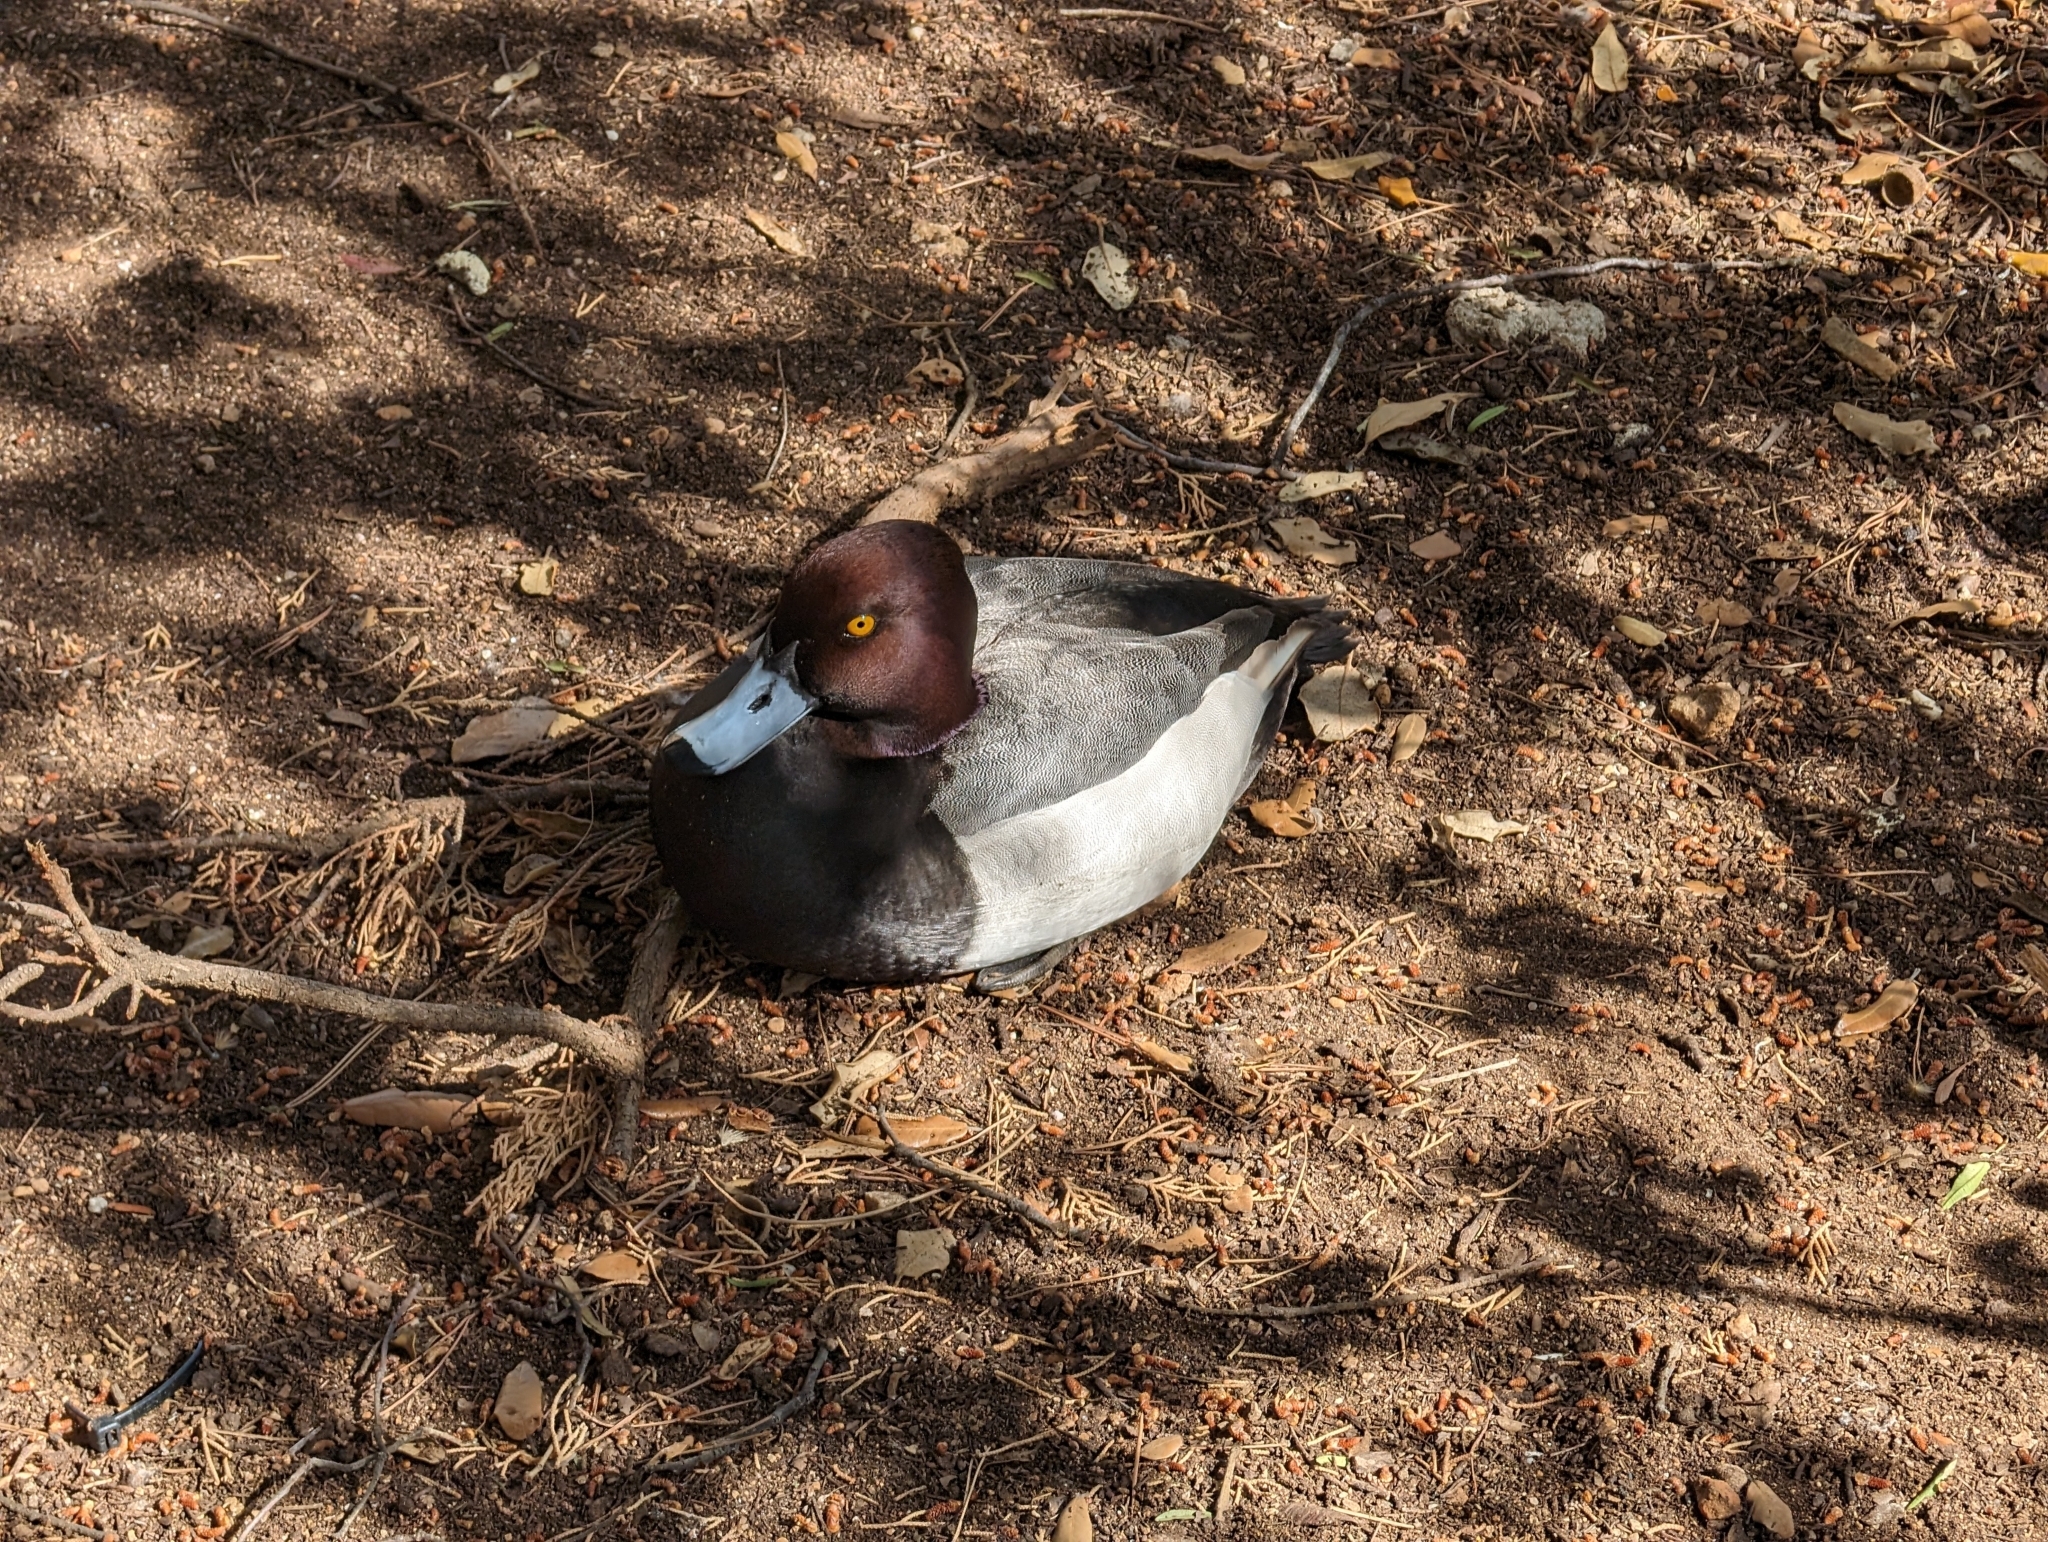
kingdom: Animalia
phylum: Chordata
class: Aves
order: Anseriformes
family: Anatidae
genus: Aythya
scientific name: Aythya
